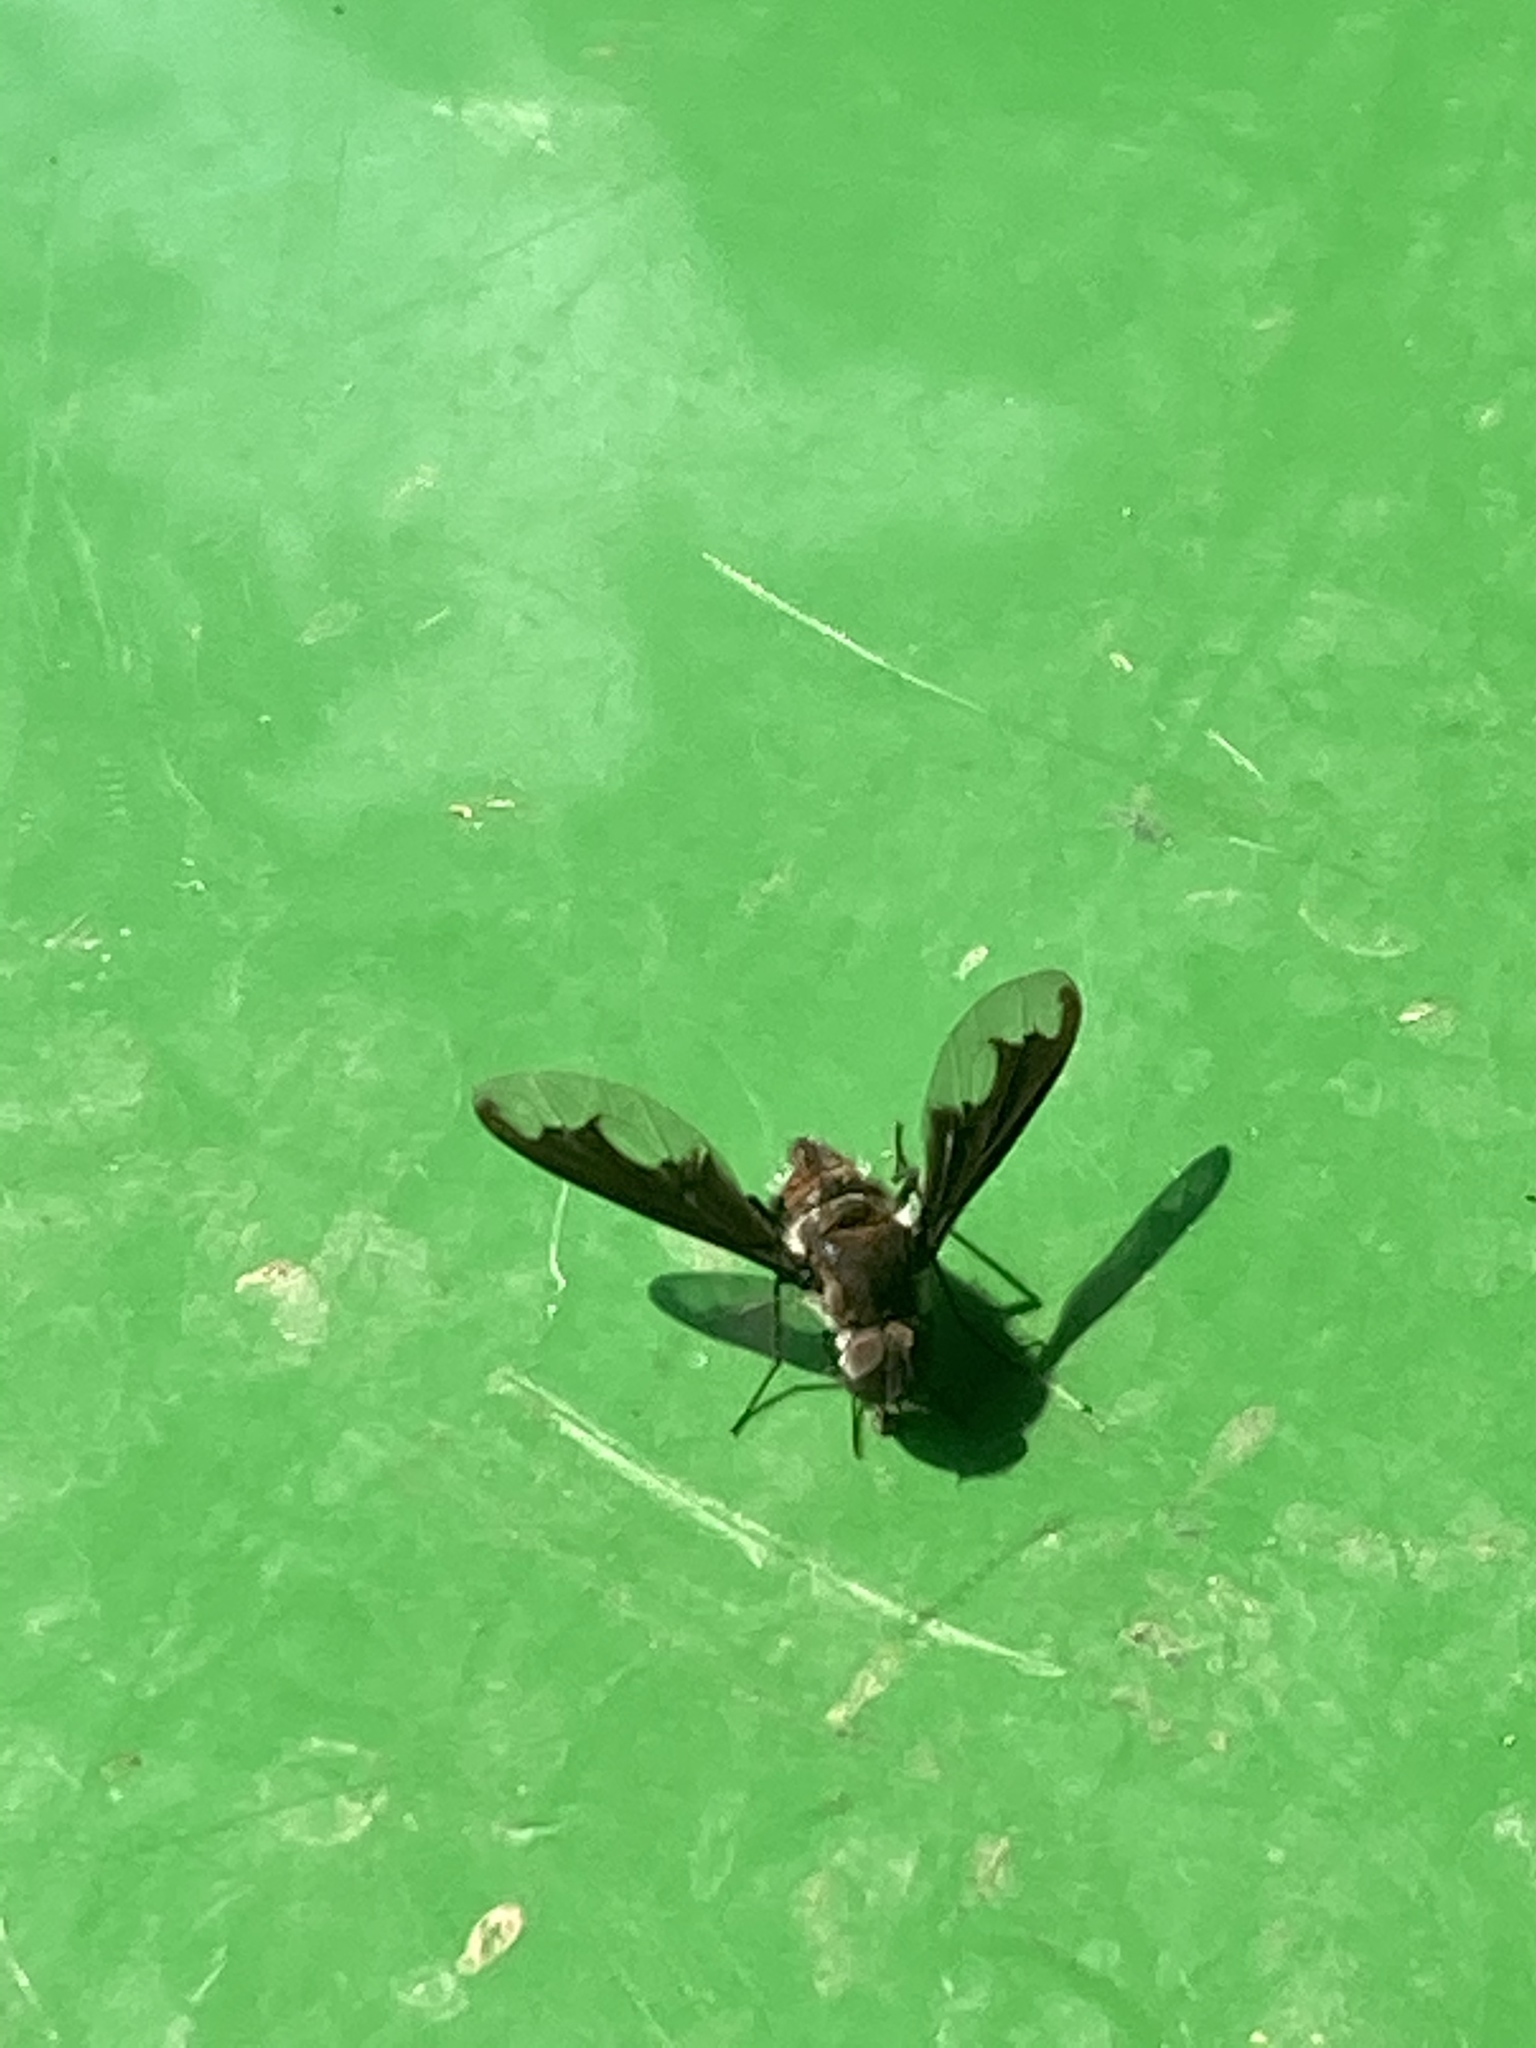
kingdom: Animalia
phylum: Arthropoda
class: Insecta
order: Diptera
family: Bombyliidae
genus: Anthrax
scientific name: Anthrax argyropygus
